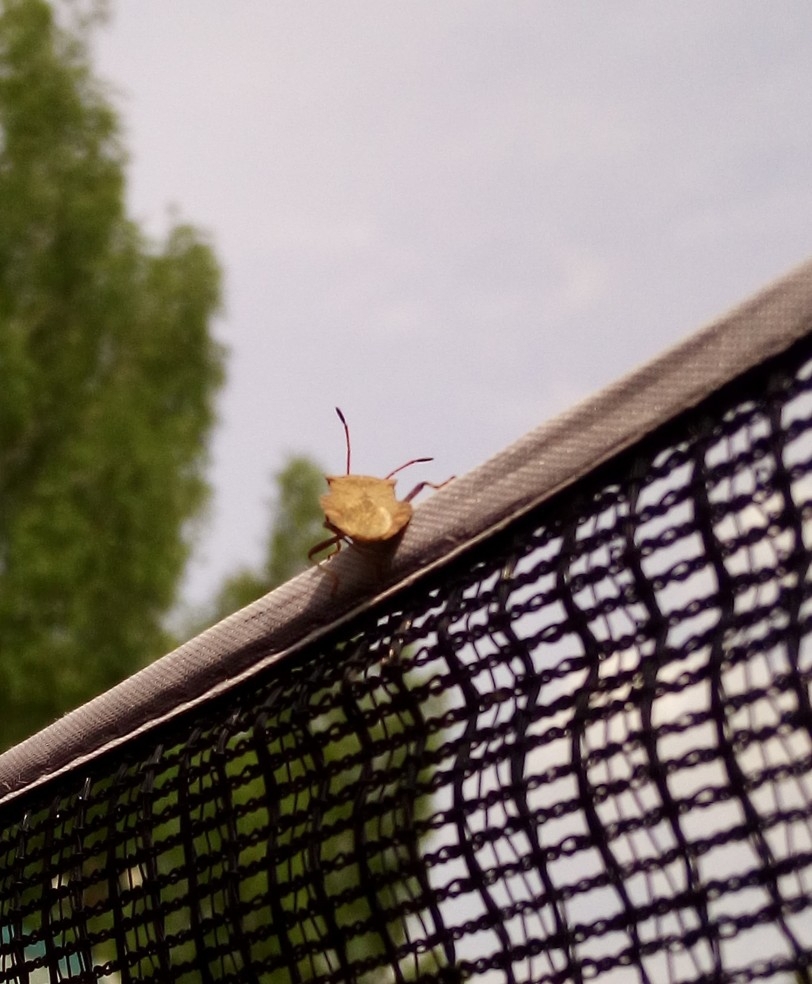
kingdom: Animalia
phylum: Arthropoda
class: Insecta
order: Hemiptera
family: Coreidae
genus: Coreus
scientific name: Coreus marginatus
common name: Dock bug
